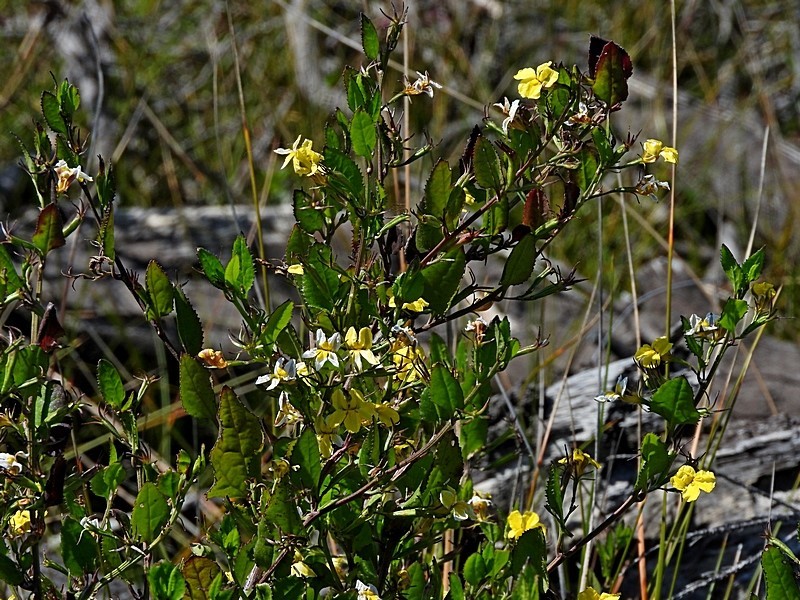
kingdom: Plantae
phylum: Tracheophyta
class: Magnoliopsida
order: Asterales
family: Goodeniaceae
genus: Goodenia
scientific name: Goodenia ovata
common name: Hop goodenia
